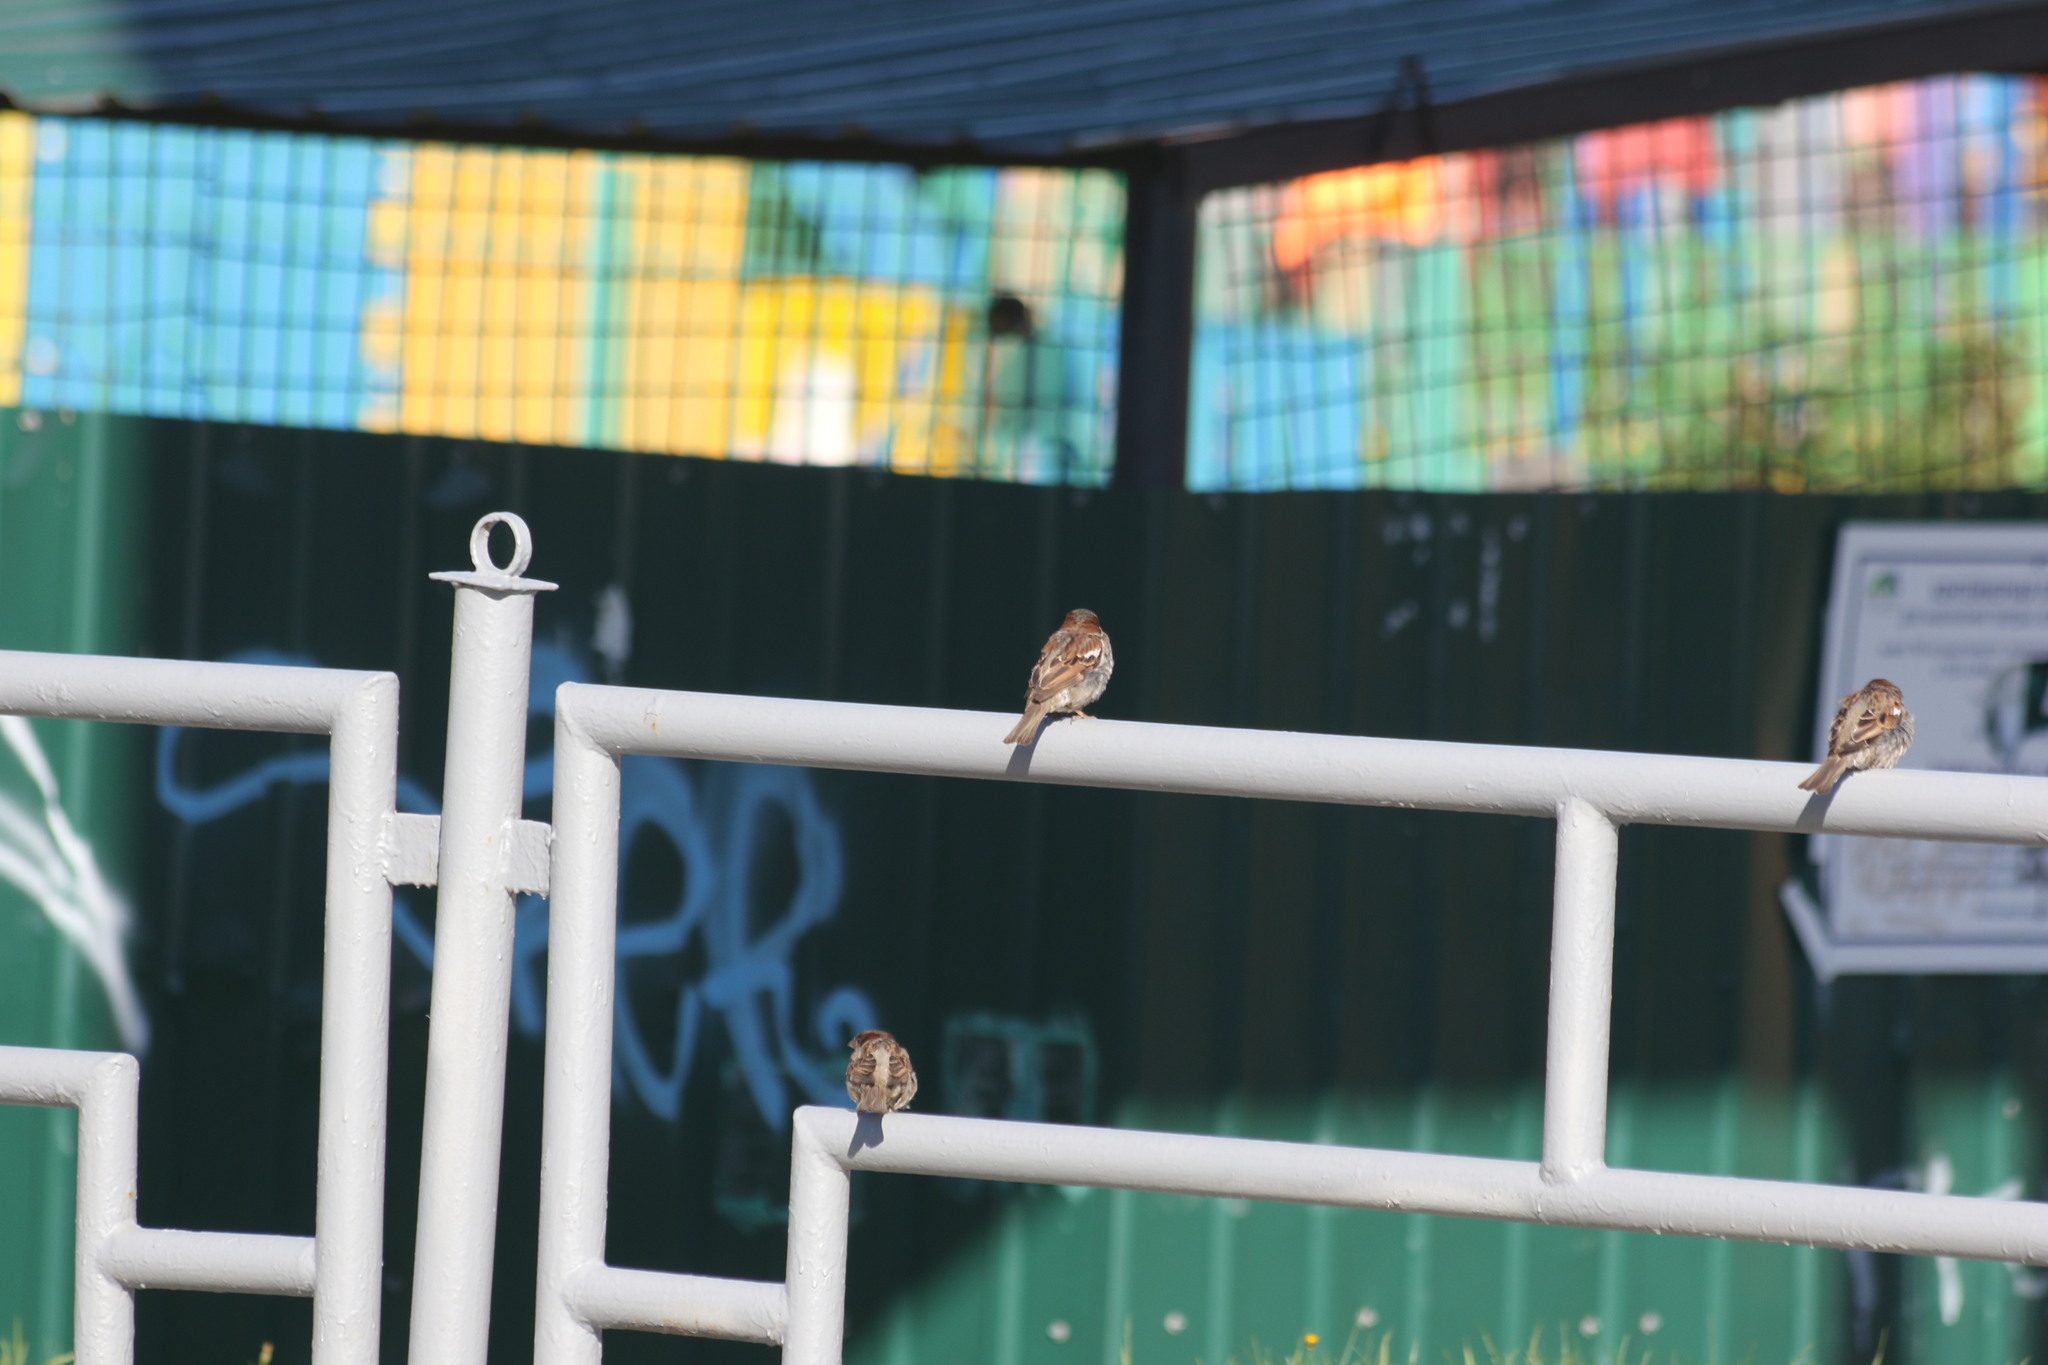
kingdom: Animalia
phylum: Chordata
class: Aves
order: Passeriformes
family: Passeridae
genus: Passer
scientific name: Passer domesticus
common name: House sparrow
